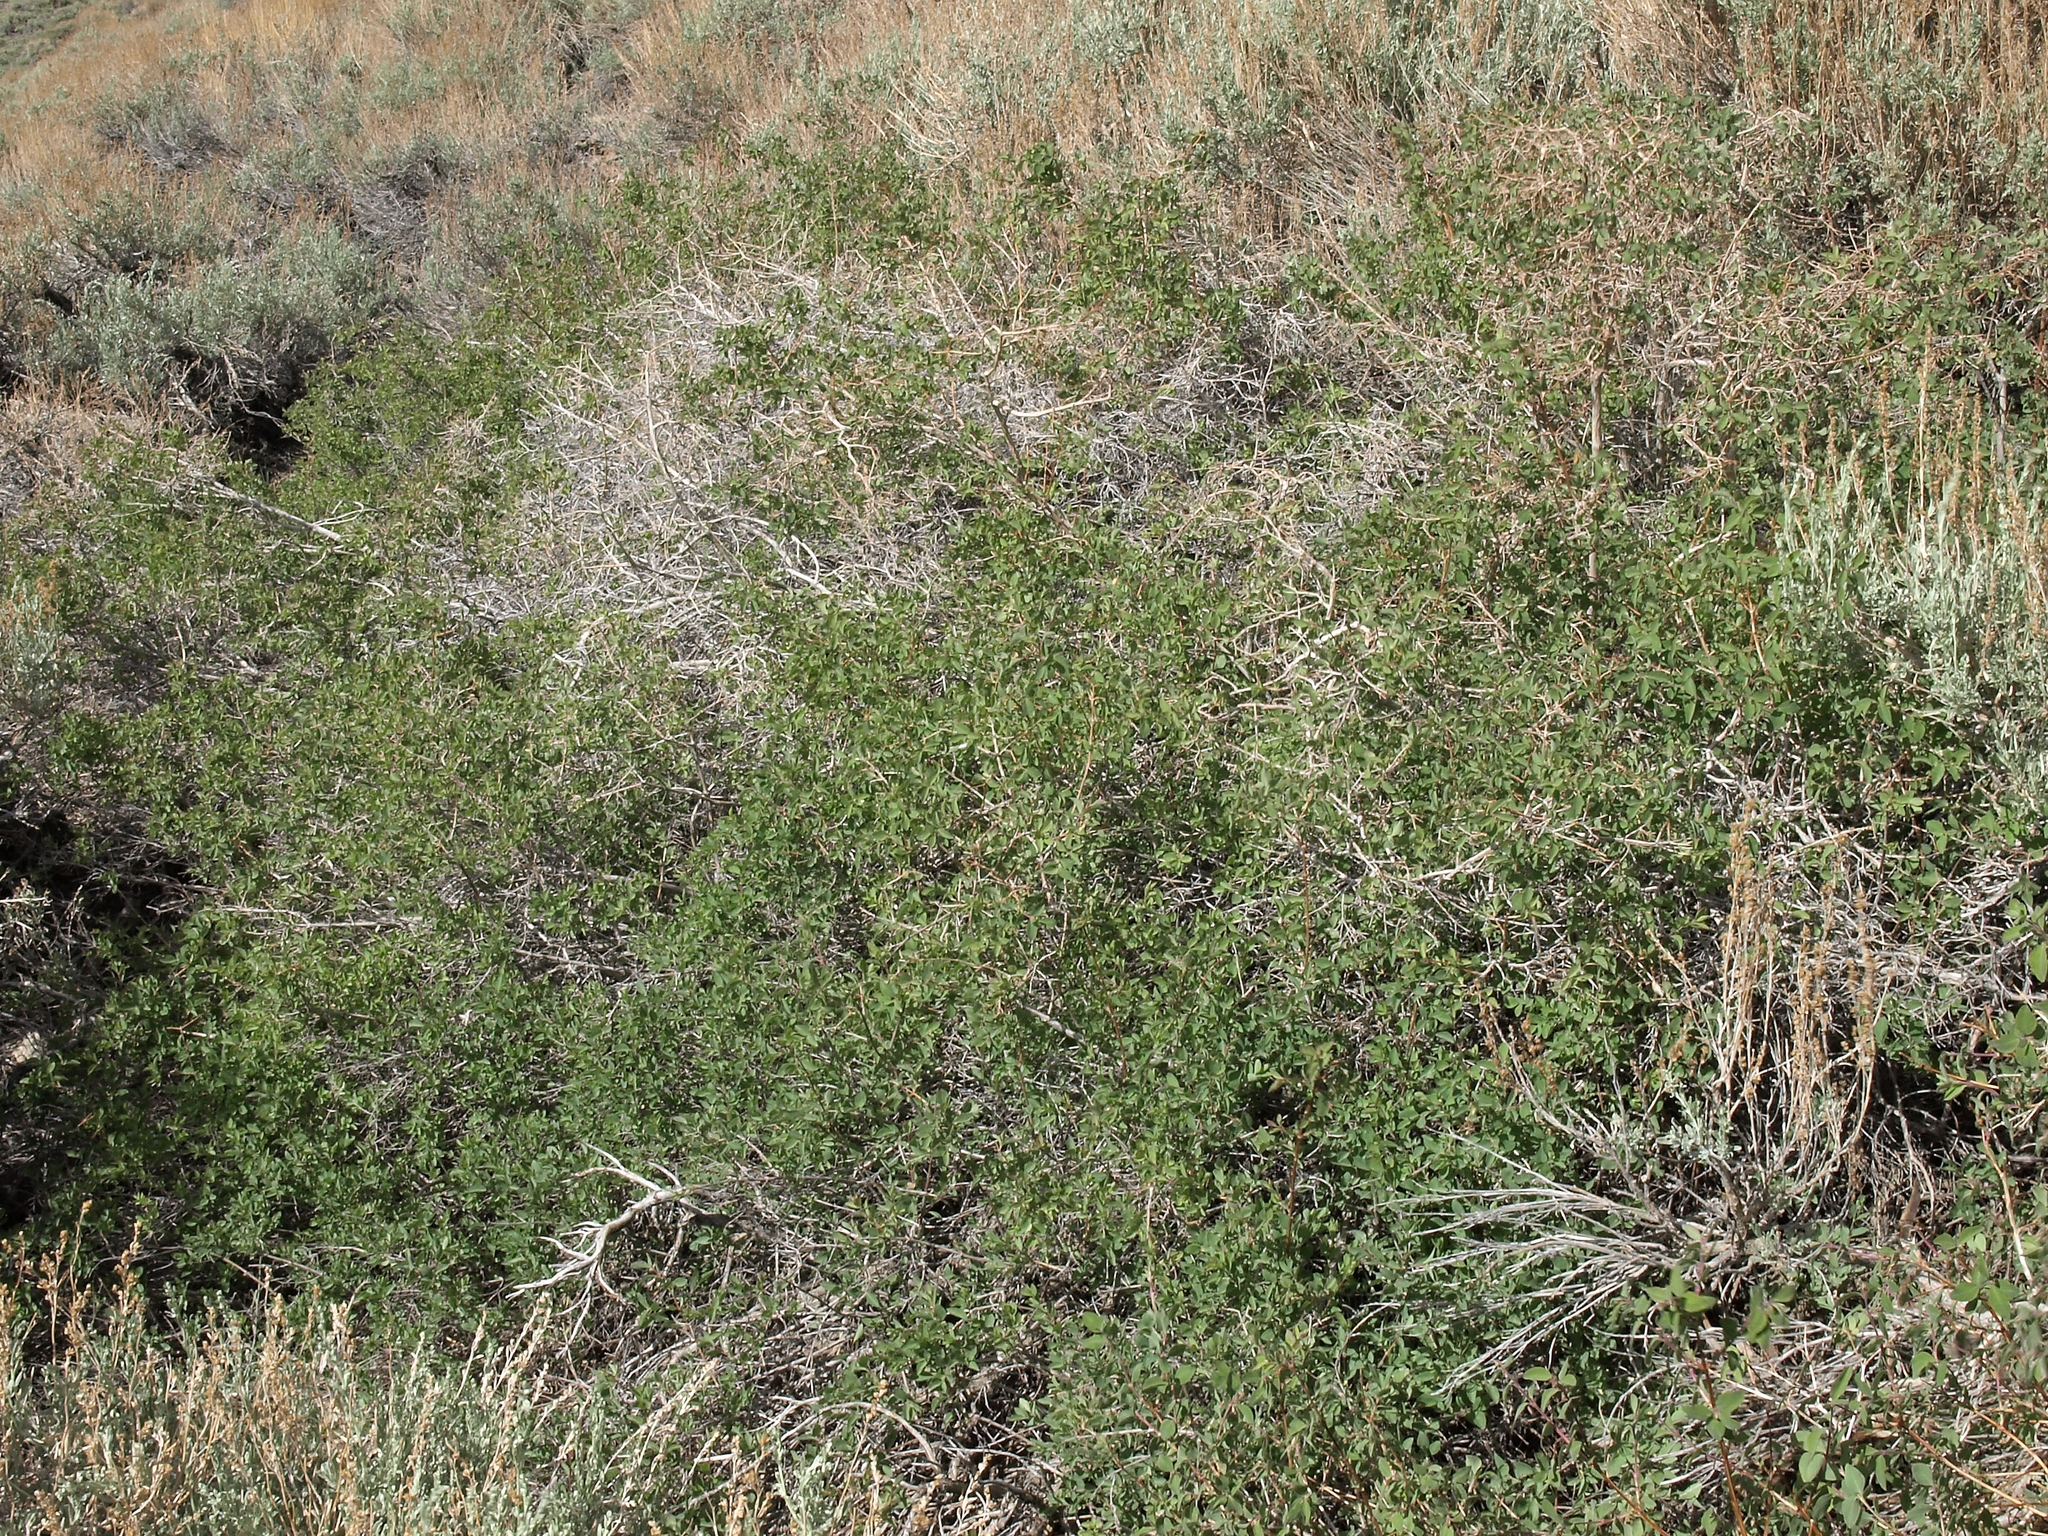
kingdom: Plantae
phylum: Tracheophyta
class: Magnoliopsida
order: Dipsacales
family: Caprifoliaceae
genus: Symphoricarpos
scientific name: Symphoricarpos rotundifolius
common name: Round-leaved snowberry
